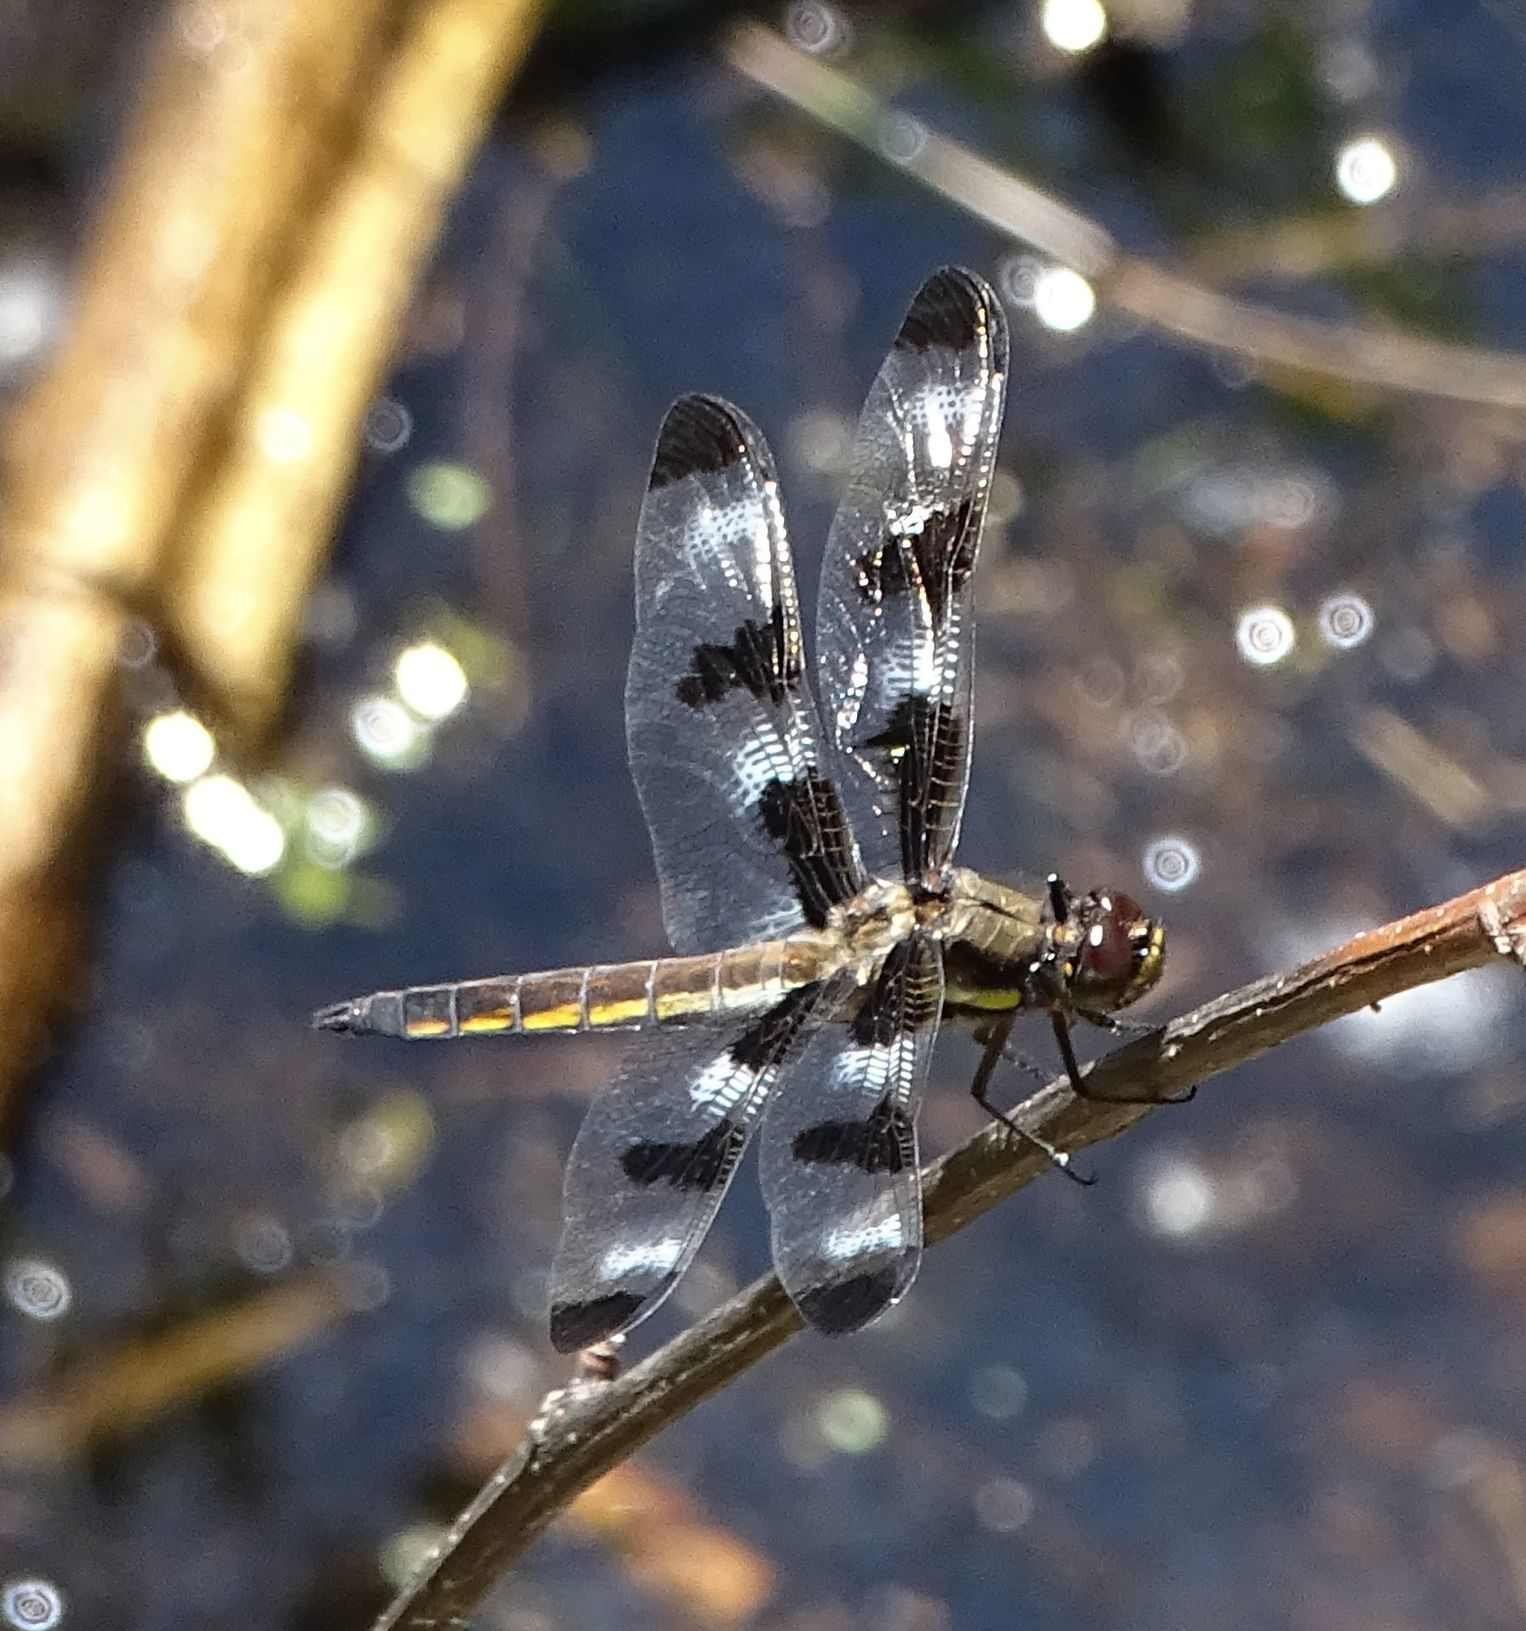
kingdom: Animalia
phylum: Arthropoda
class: Insecta
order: Odonata
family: Libellulidae
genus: Libellula
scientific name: Libellula pulchella
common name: Twelve-spotted skimmer
